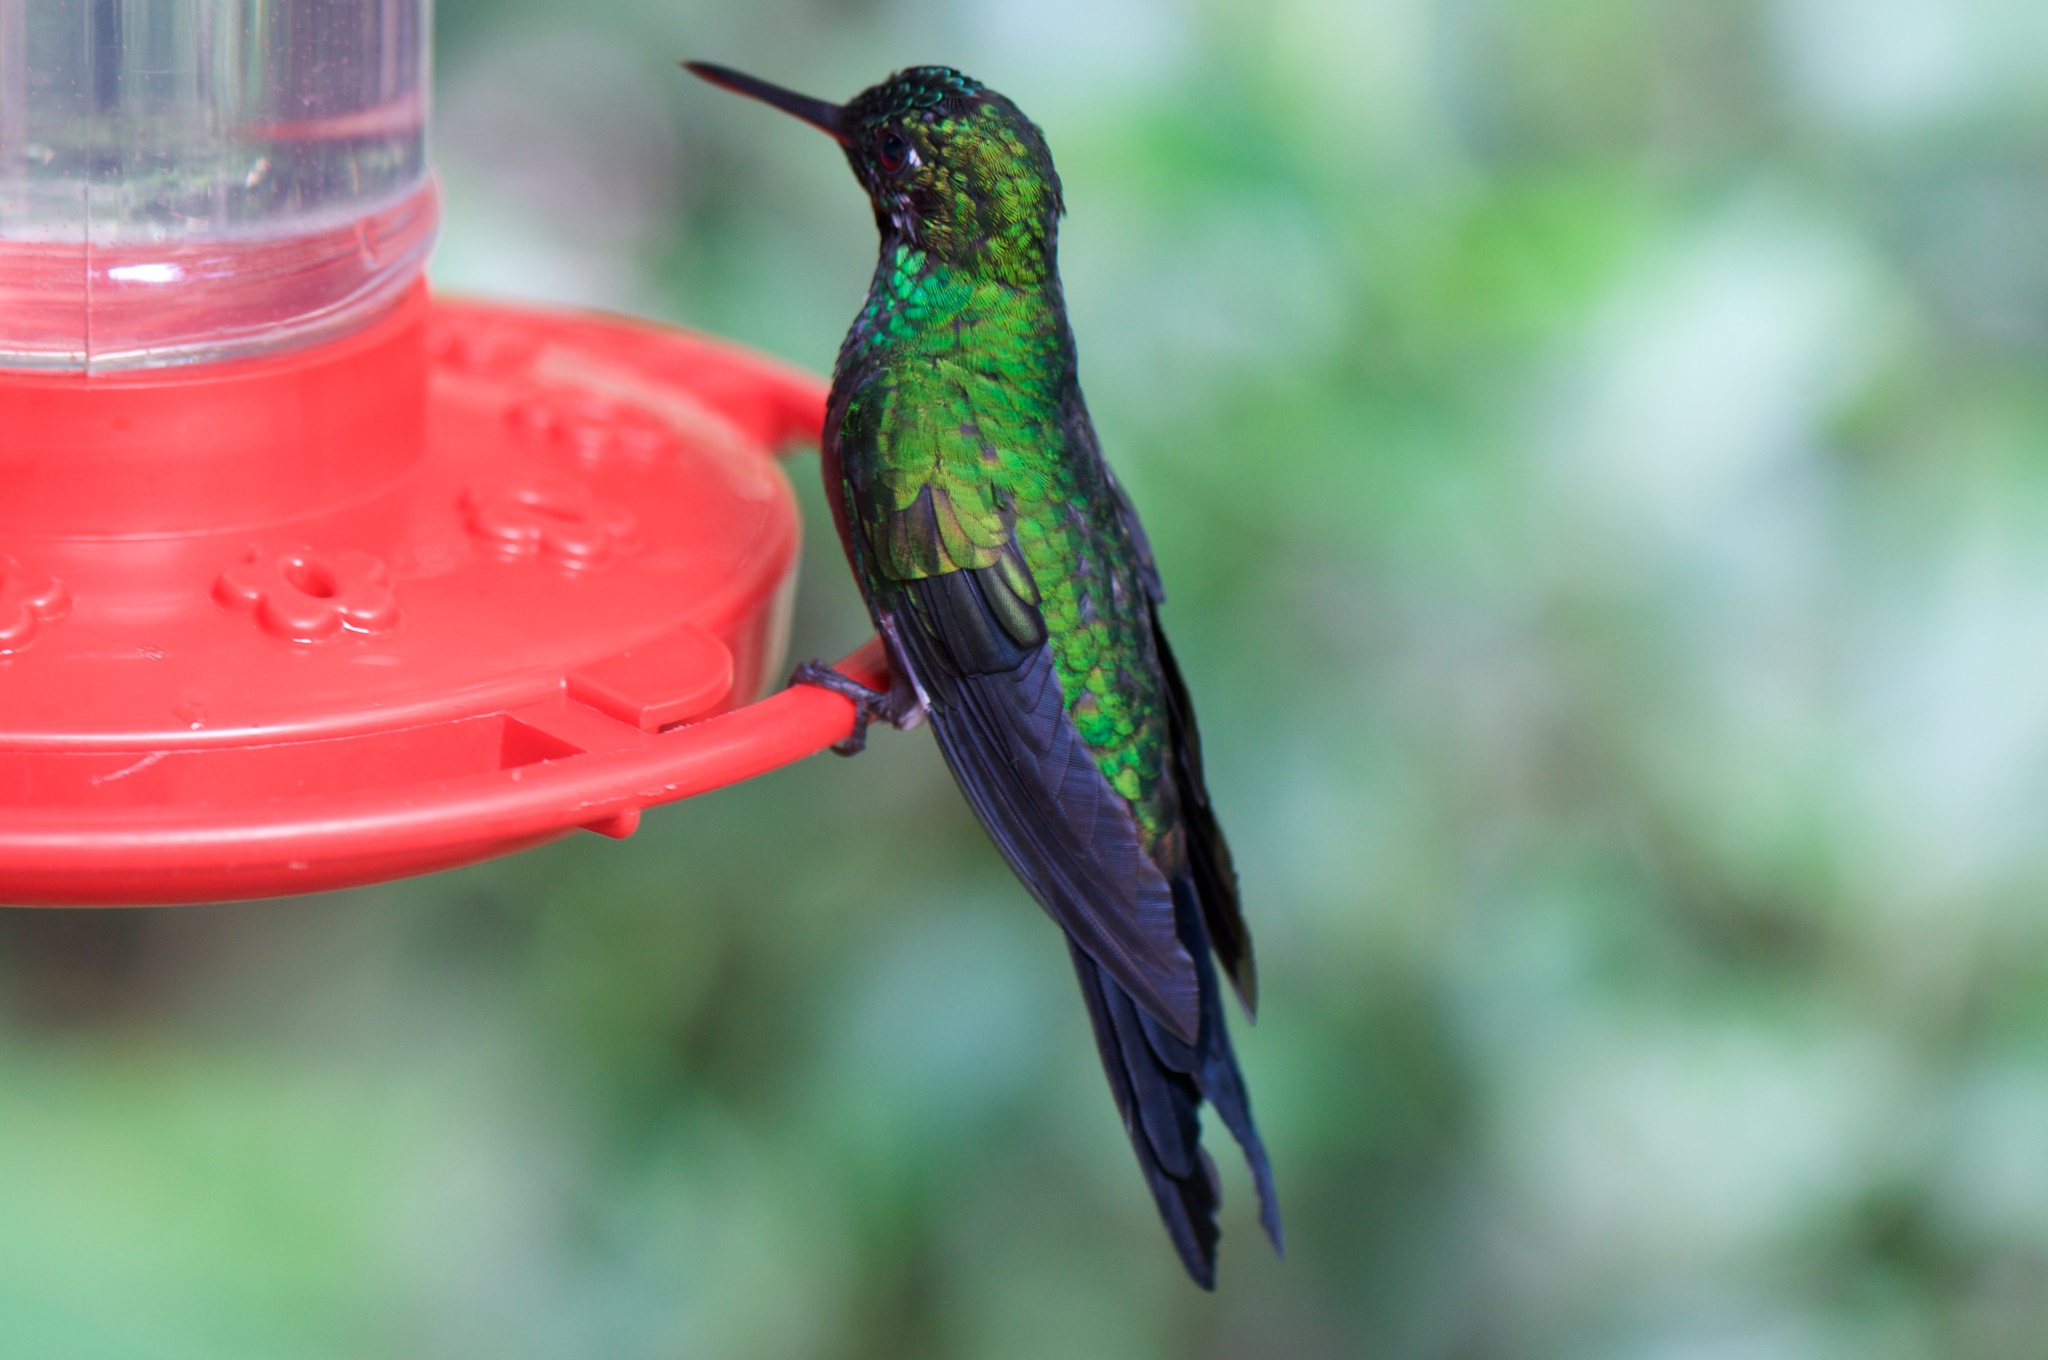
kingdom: Animalia
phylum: Chordata
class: Aves
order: Apodiformes
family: Trochilidae
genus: Heliodoxa
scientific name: Heliodoxa jacula
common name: Green-crowned brilliant
